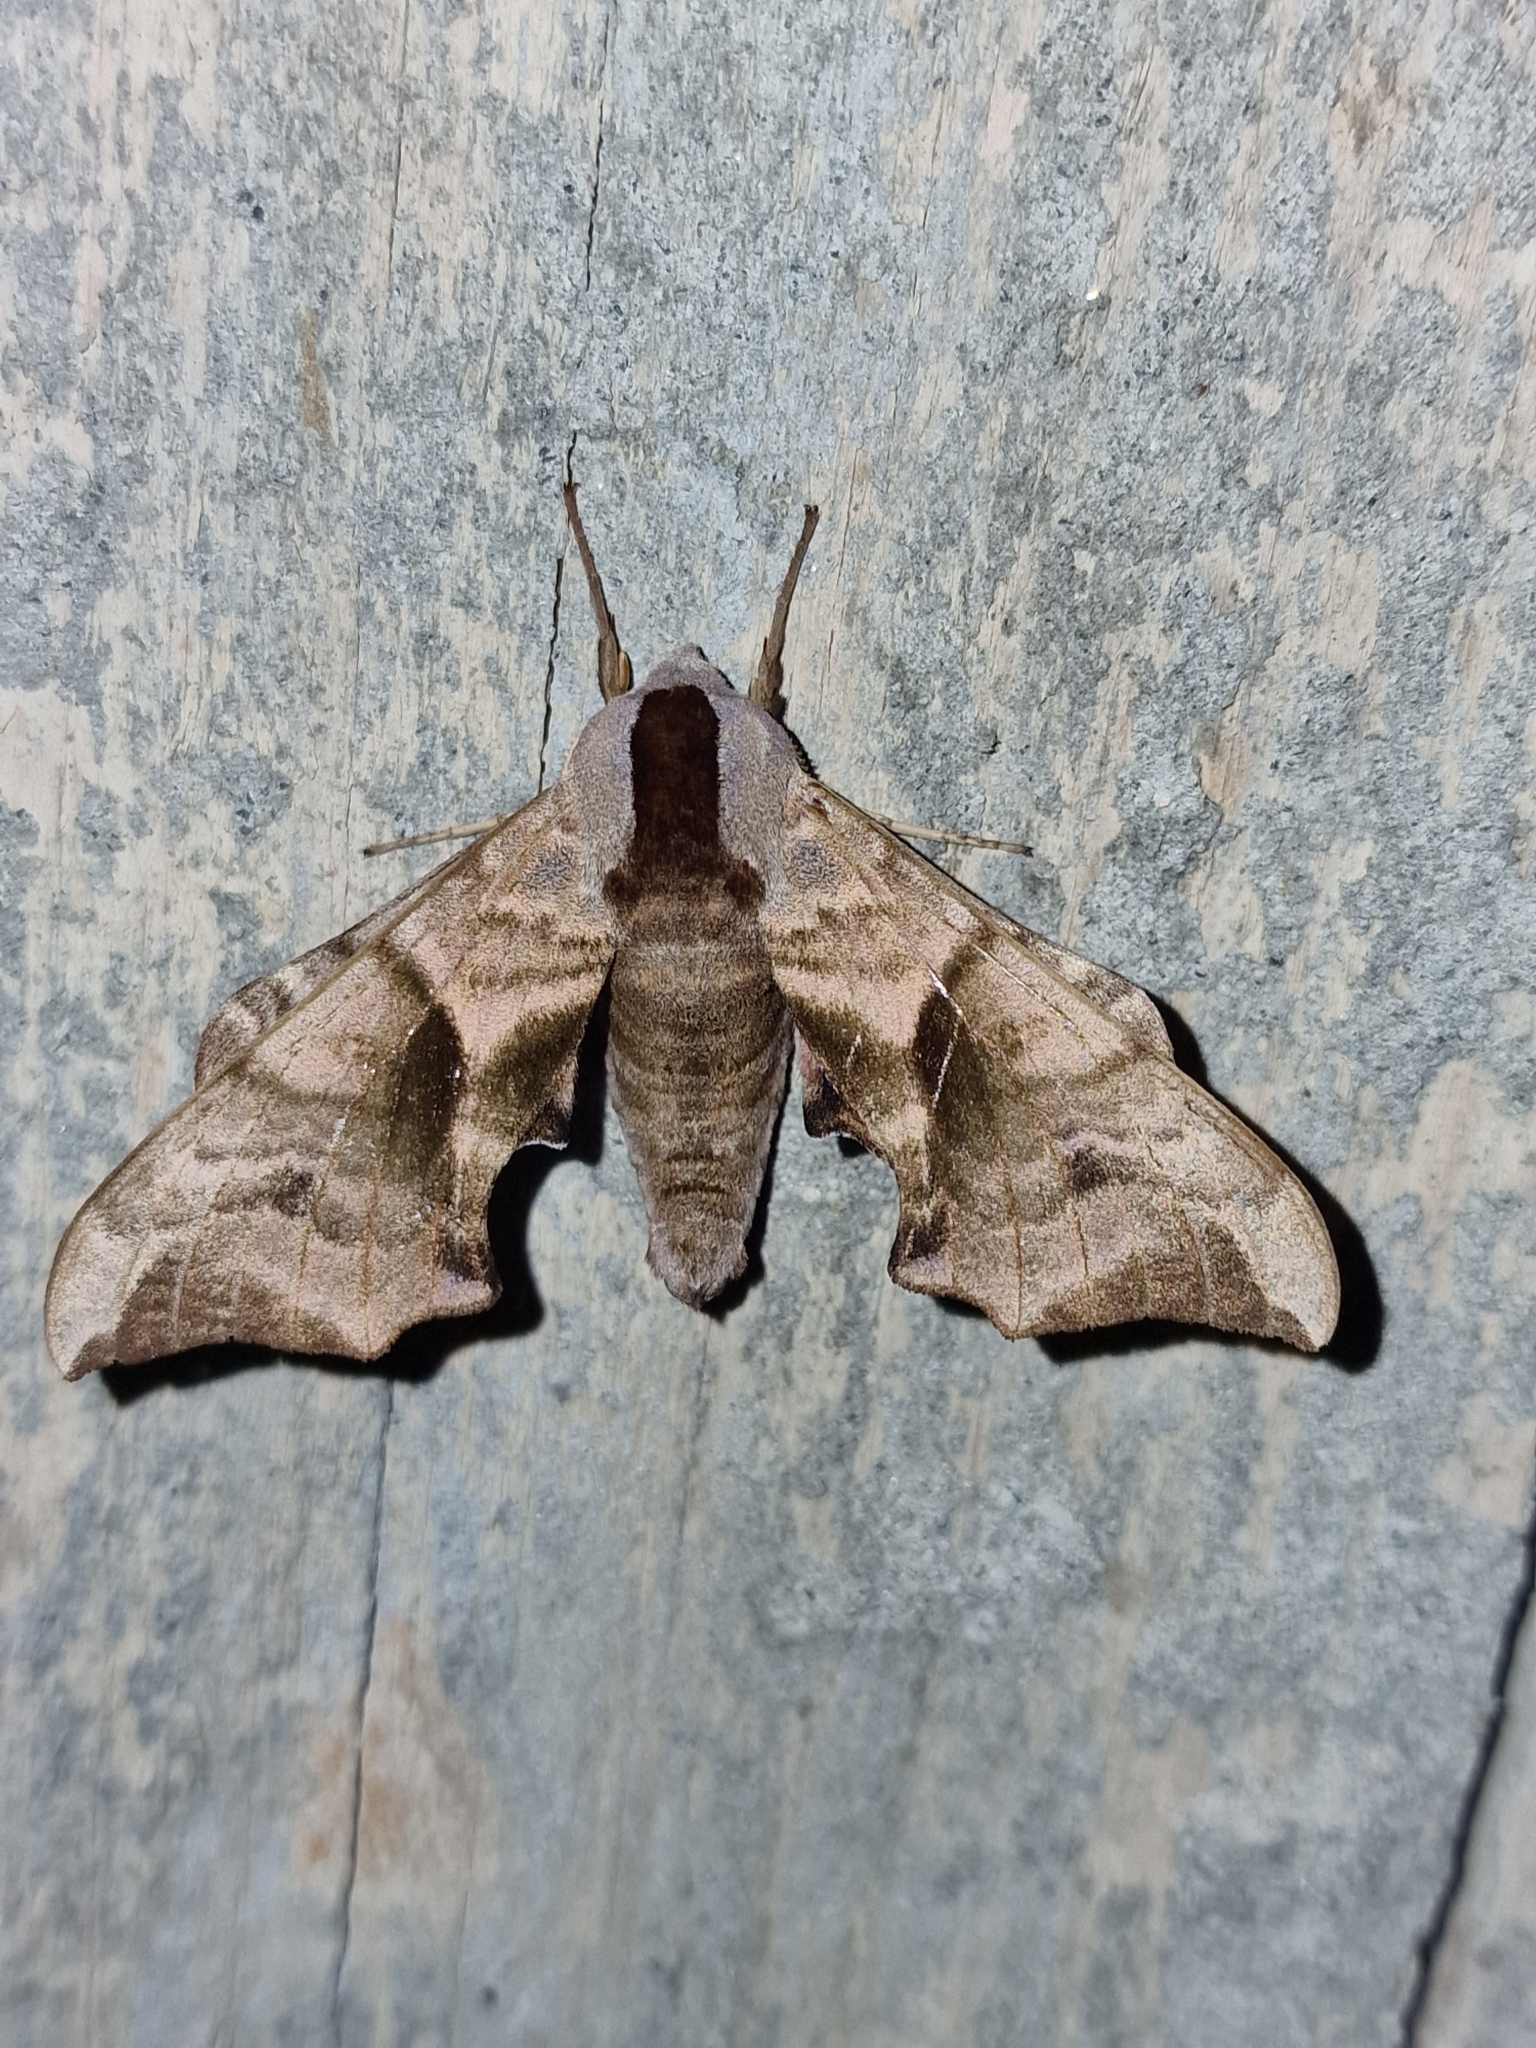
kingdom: Animalia
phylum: Arthropoda
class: Insecta
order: Lepidoptera
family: Sphingidae
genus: Smerinthus
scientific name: Smerinthus ocellata
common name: Eyed hawk-moth
